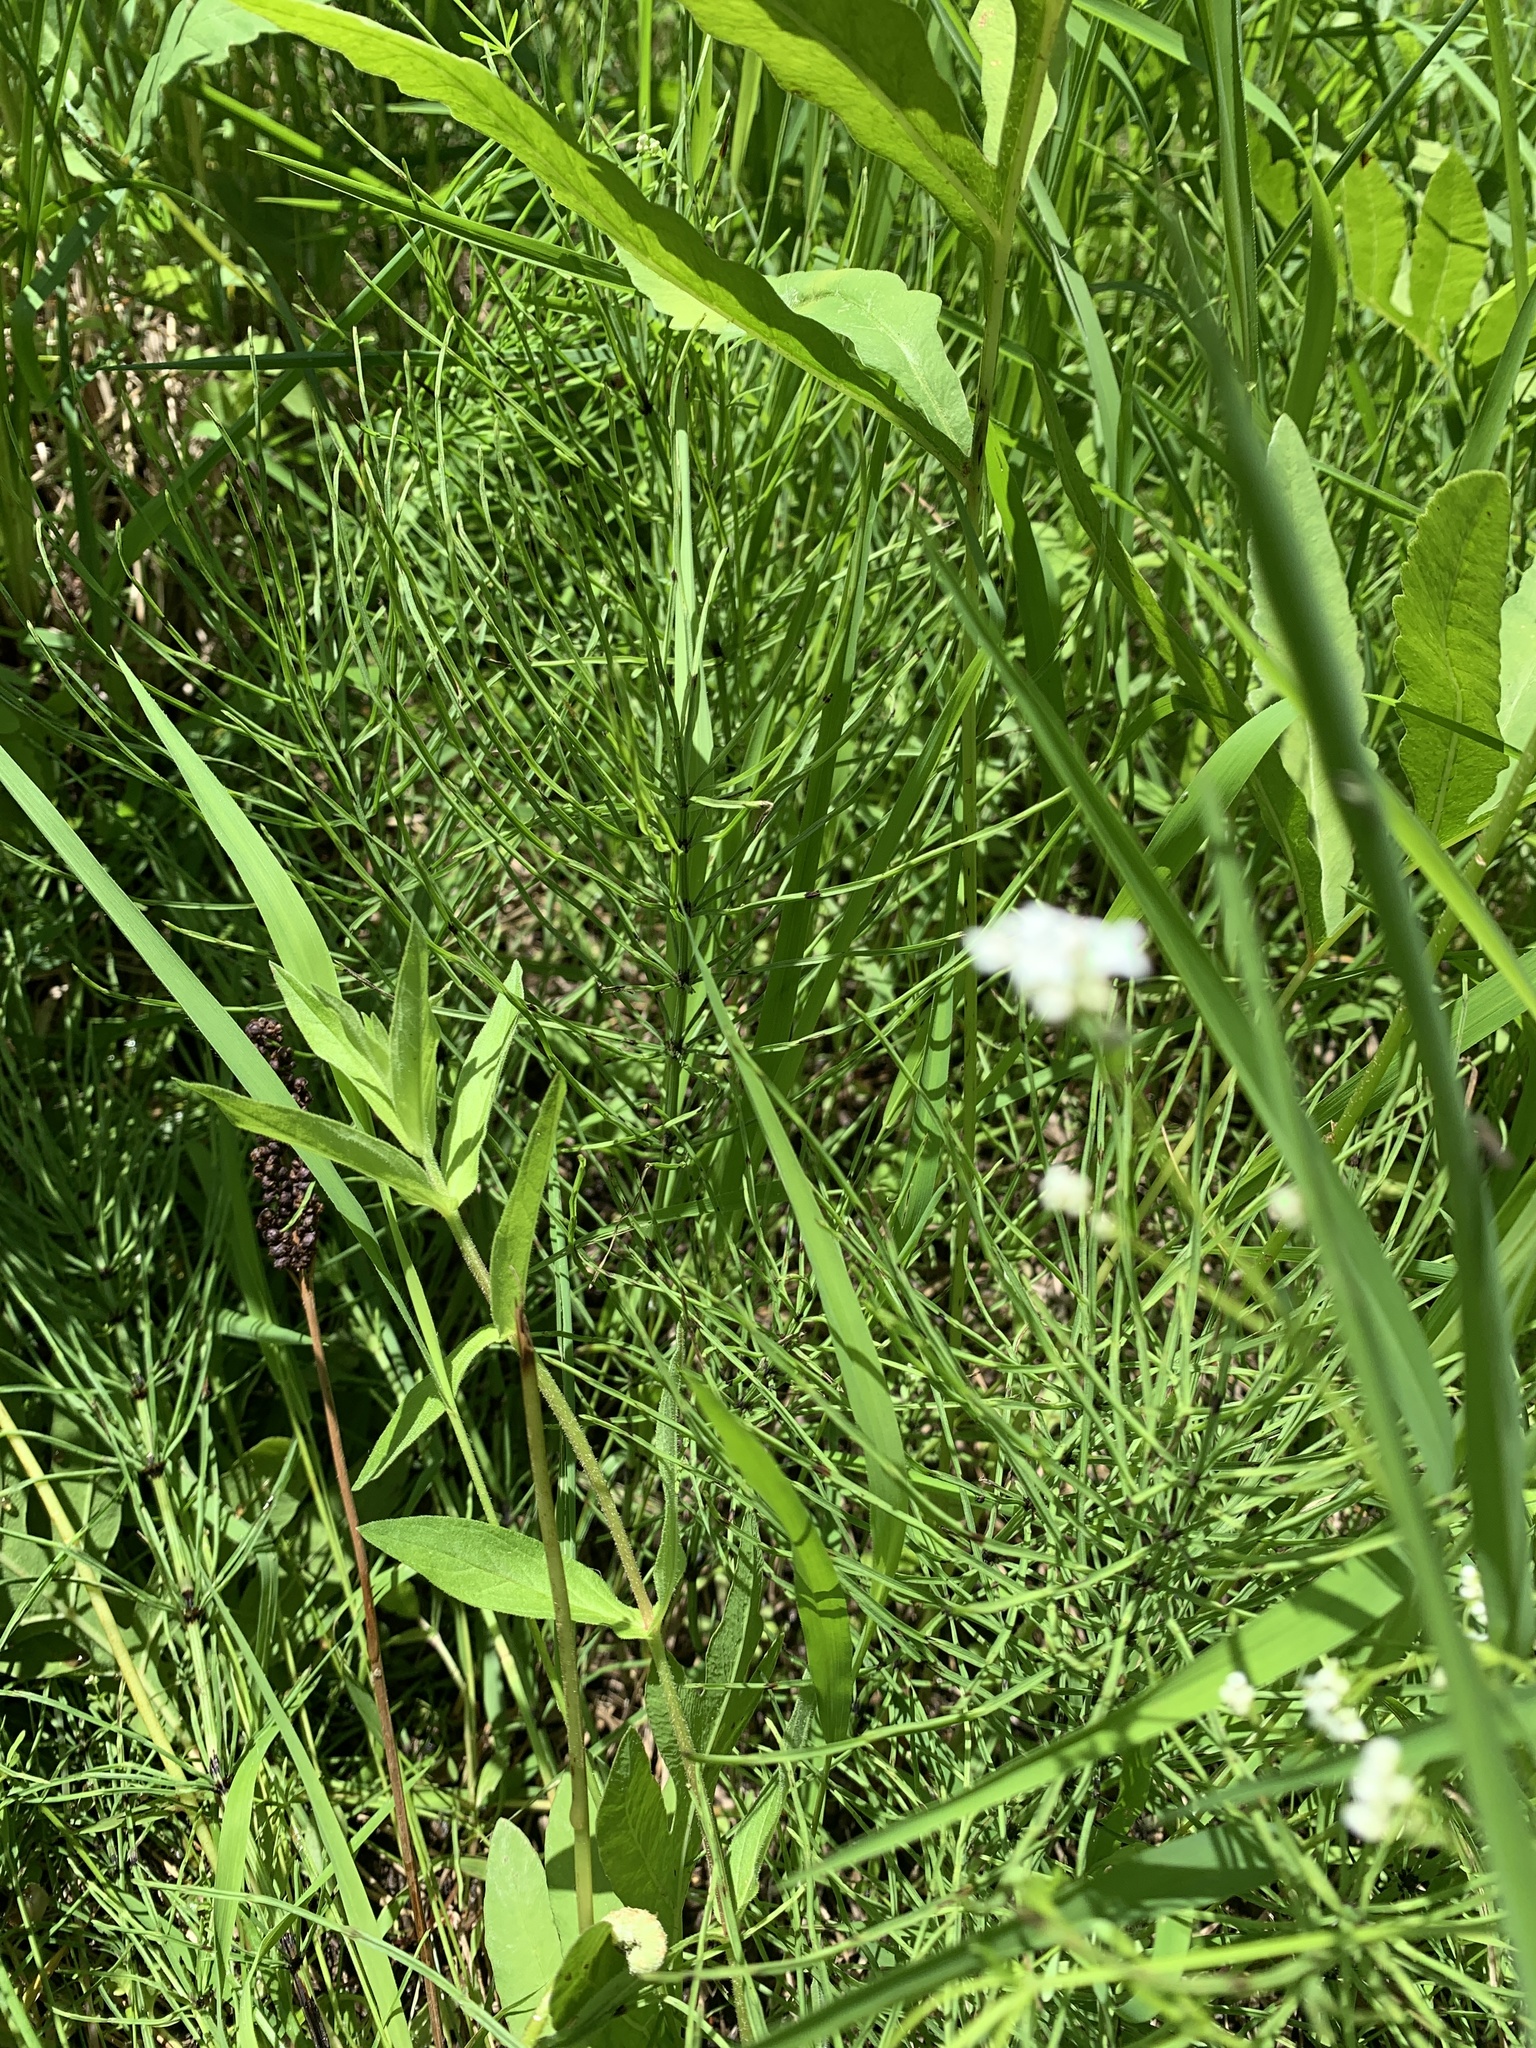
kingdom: Plantae
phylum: Tracheophyta
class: Polypodiopsida
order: Equisetales
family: Equisetaceae
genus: Equisetum
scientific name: Equisetum arvense
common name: Field horsetail
